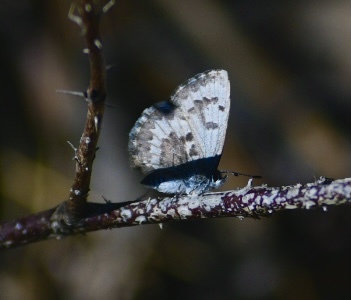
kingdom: Animalia
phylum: Arthropoda
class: Insecta
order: Lepidoptera
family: Lycaenidae
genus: Celastrina
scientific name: Celastrina lucia
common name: Lucia azure
